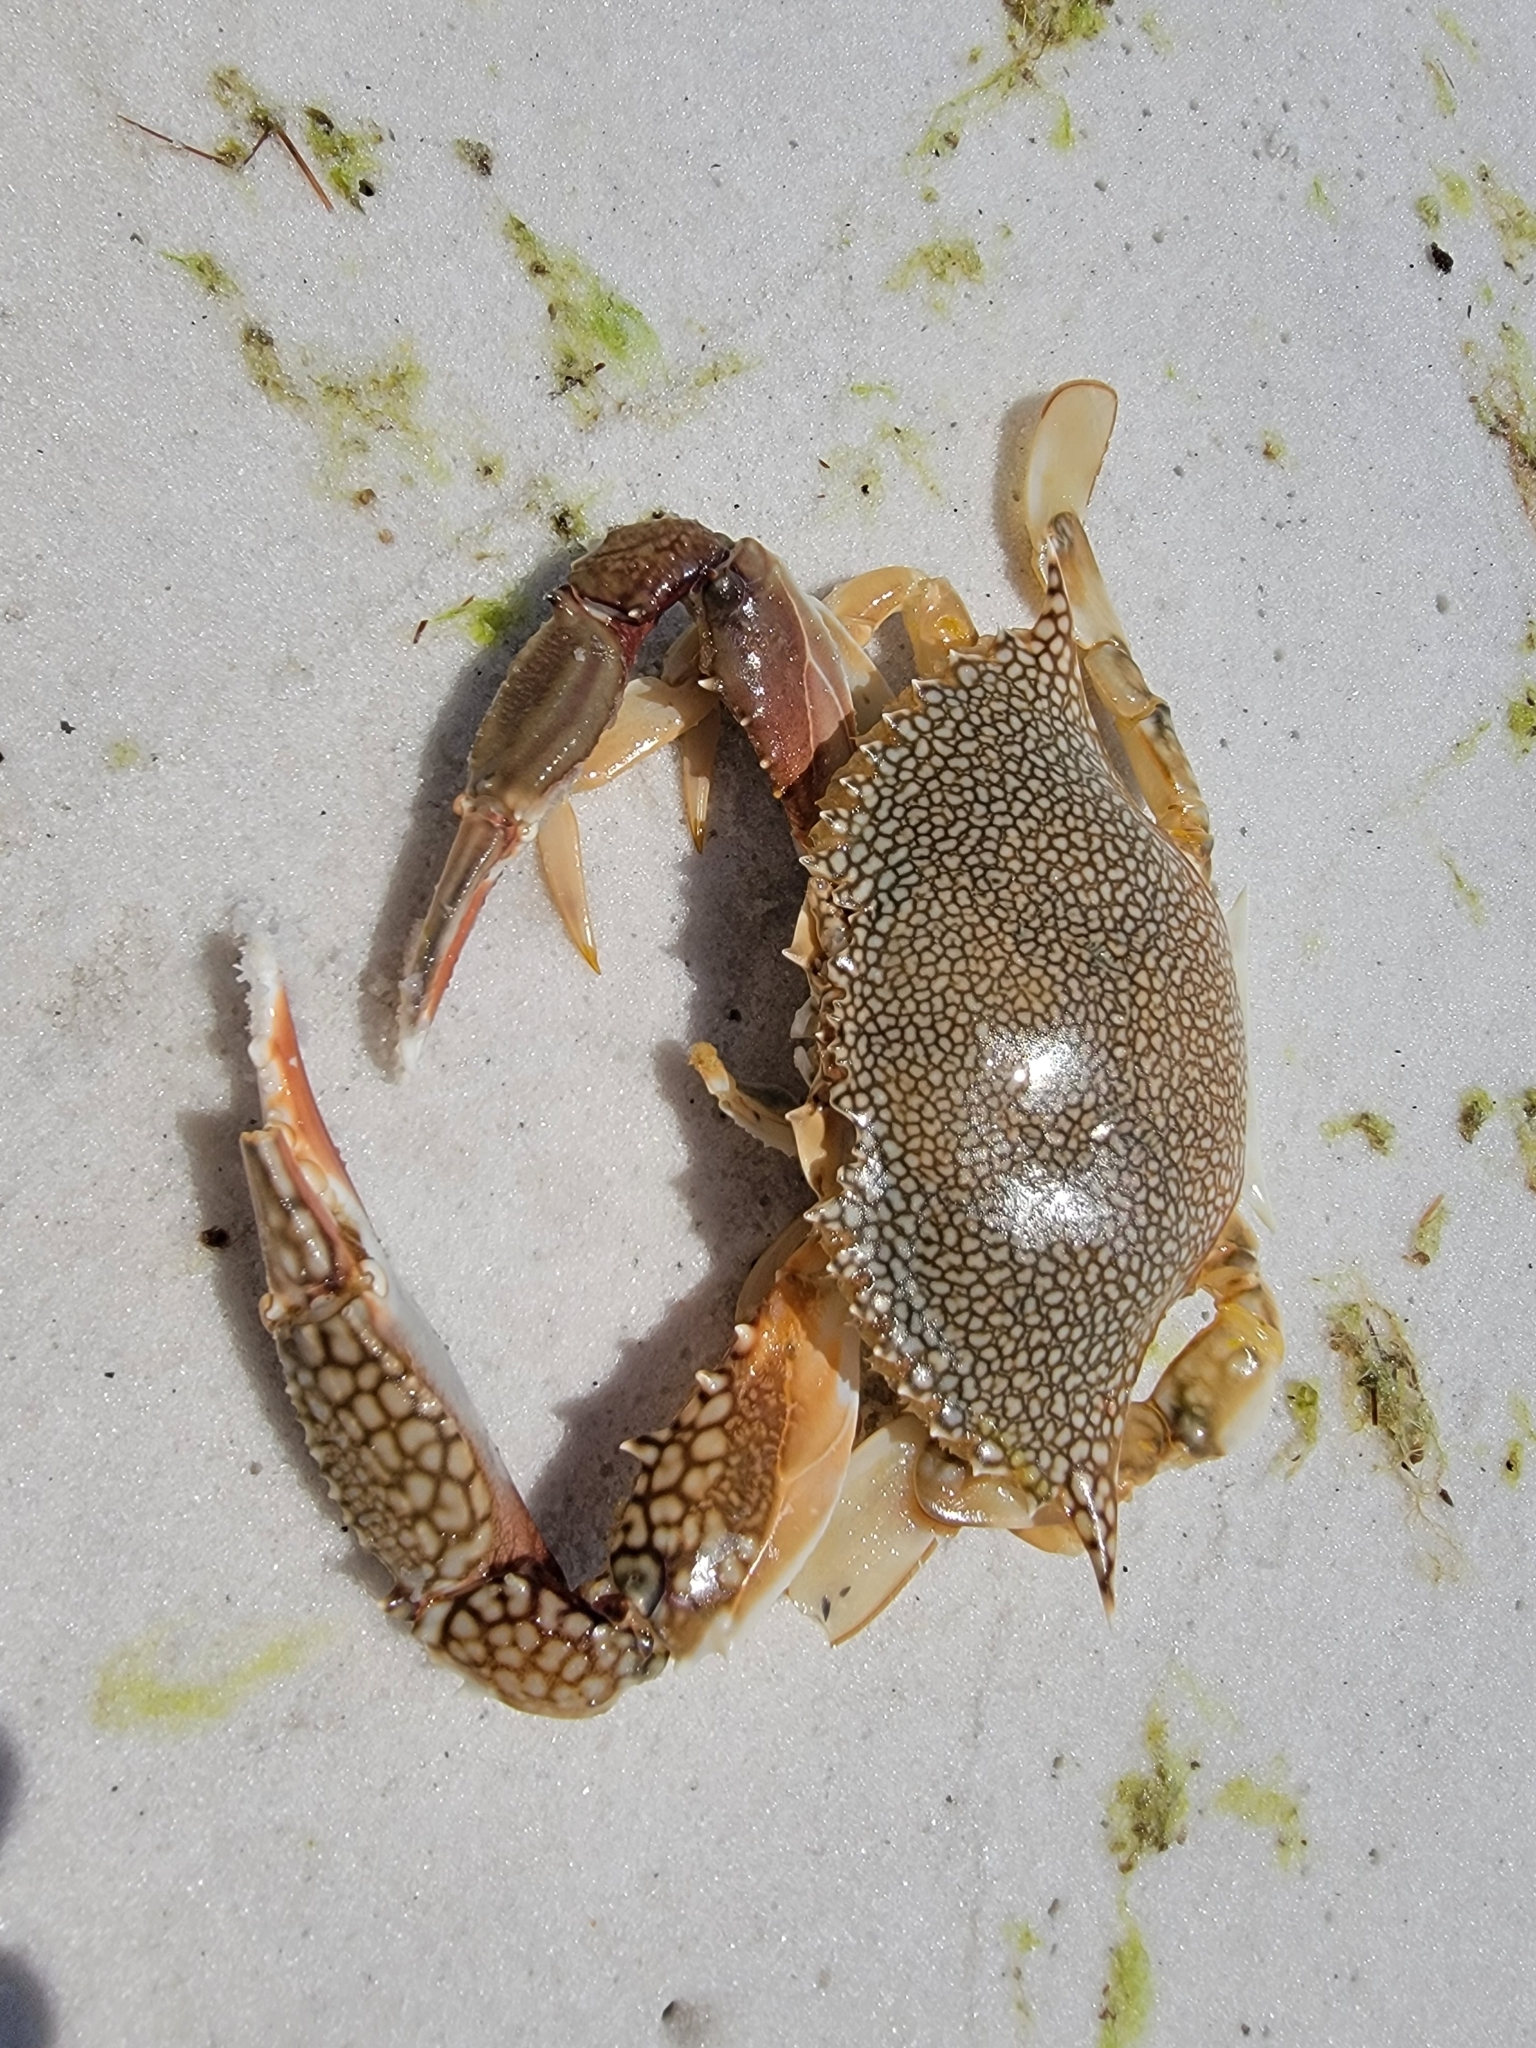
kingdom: Animalia
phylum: Arthropoda
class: Malacostraca
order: Decapoda
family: Portunidae
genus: Arenaeus
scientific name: Arenaeus cribrarius
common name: Speckled crab
